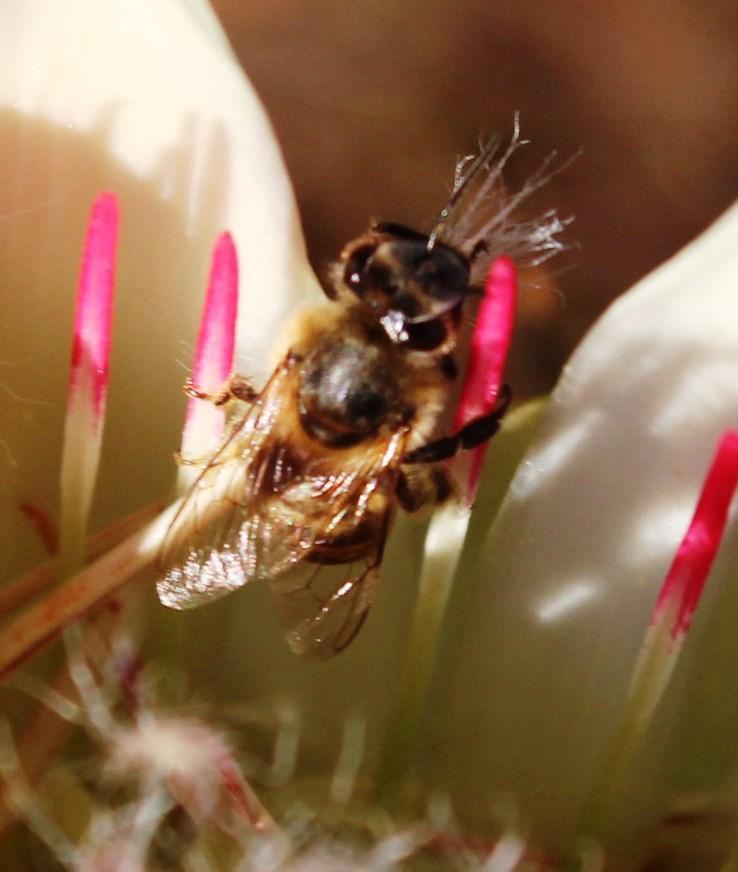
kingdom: Animalia
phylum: Arthropoda
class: Insecta
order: Hymenoptera
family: Apidae
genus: Apis
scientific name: Apis mellifera
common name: Honey bee
